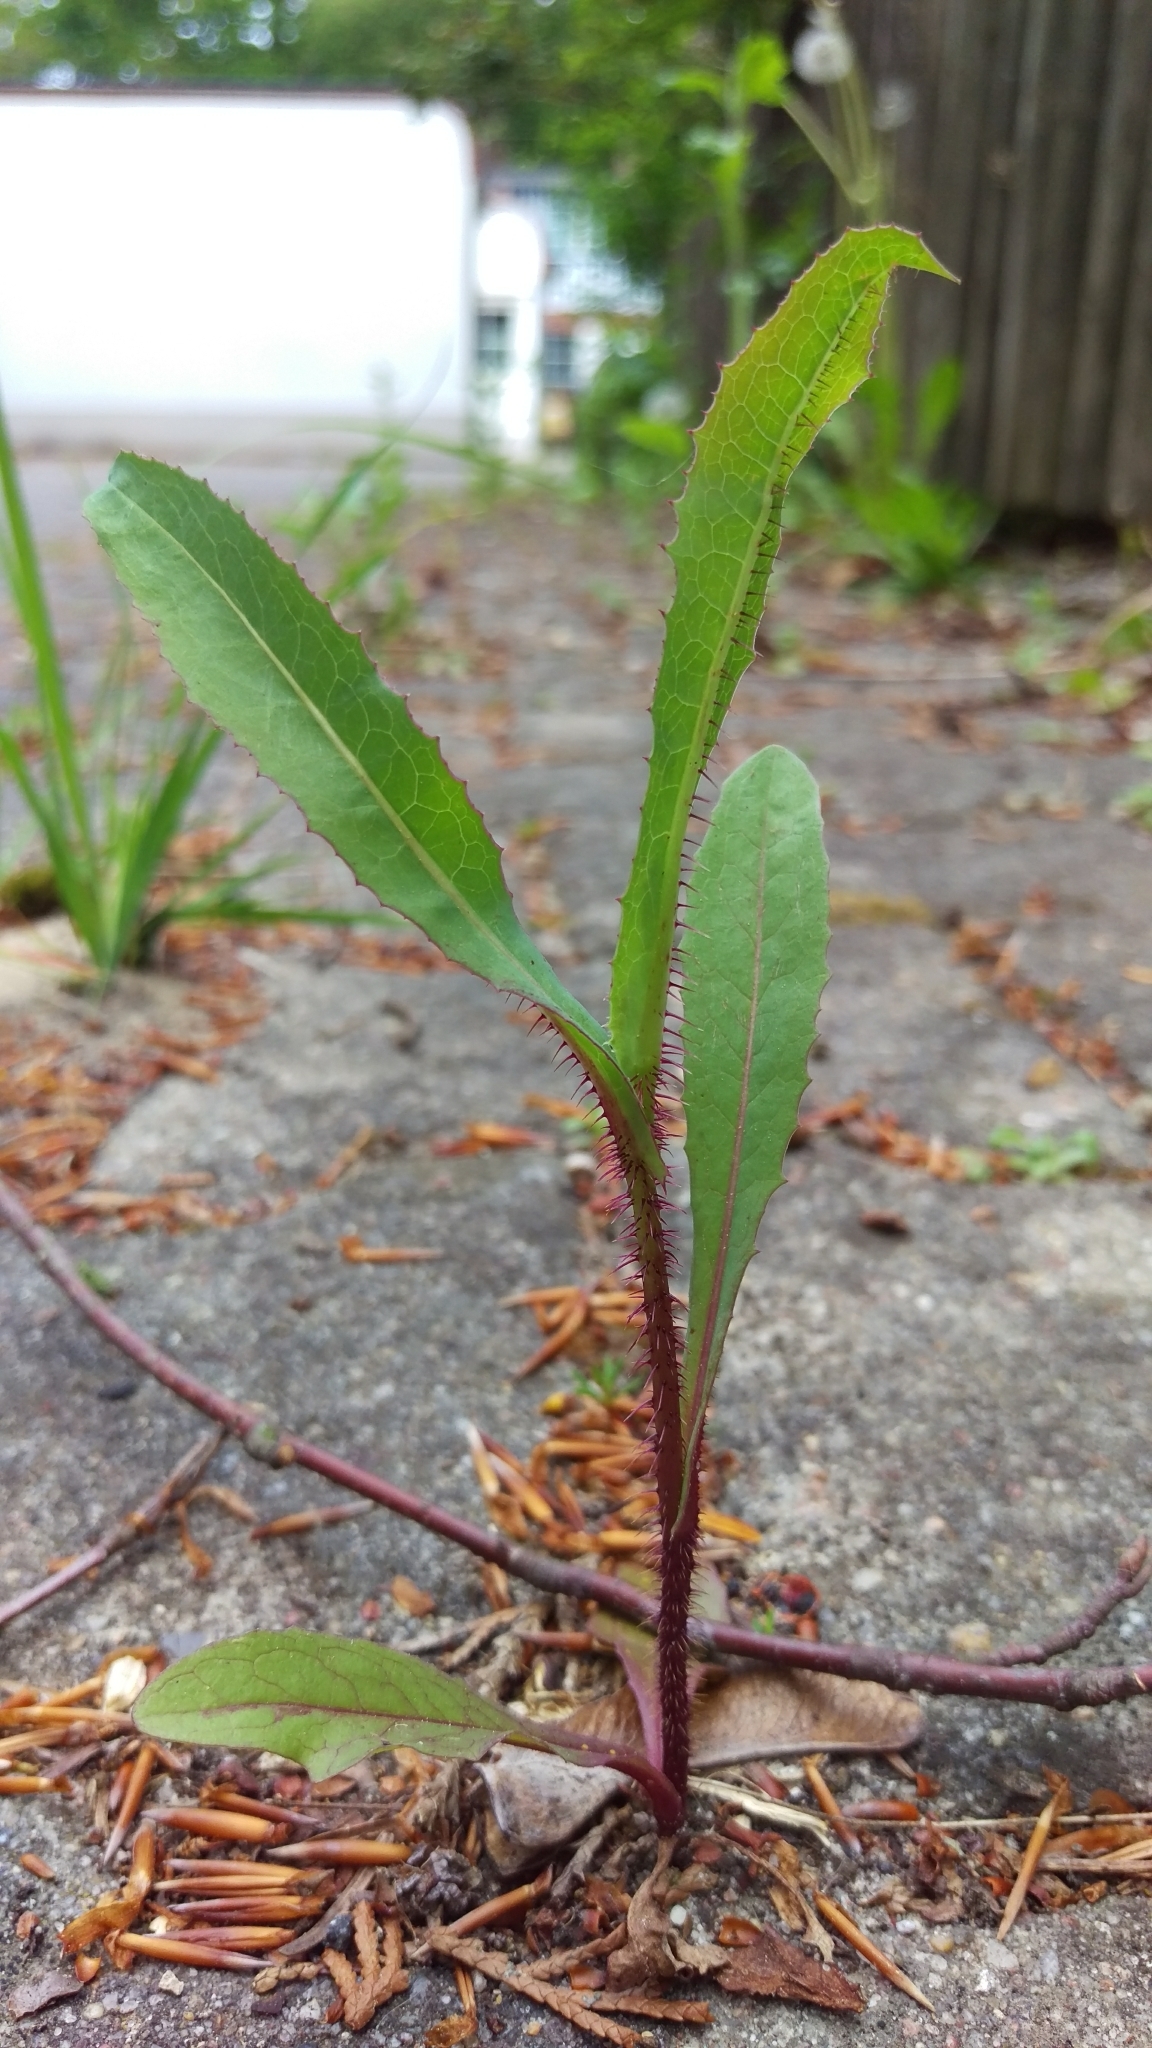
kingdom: Plantae
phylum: Tracheophyta
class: Magnoliopsida
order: Asterales
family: Asteraceae
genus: Lactuca
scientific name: Lactuca serriola
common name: Prickly lettuce
